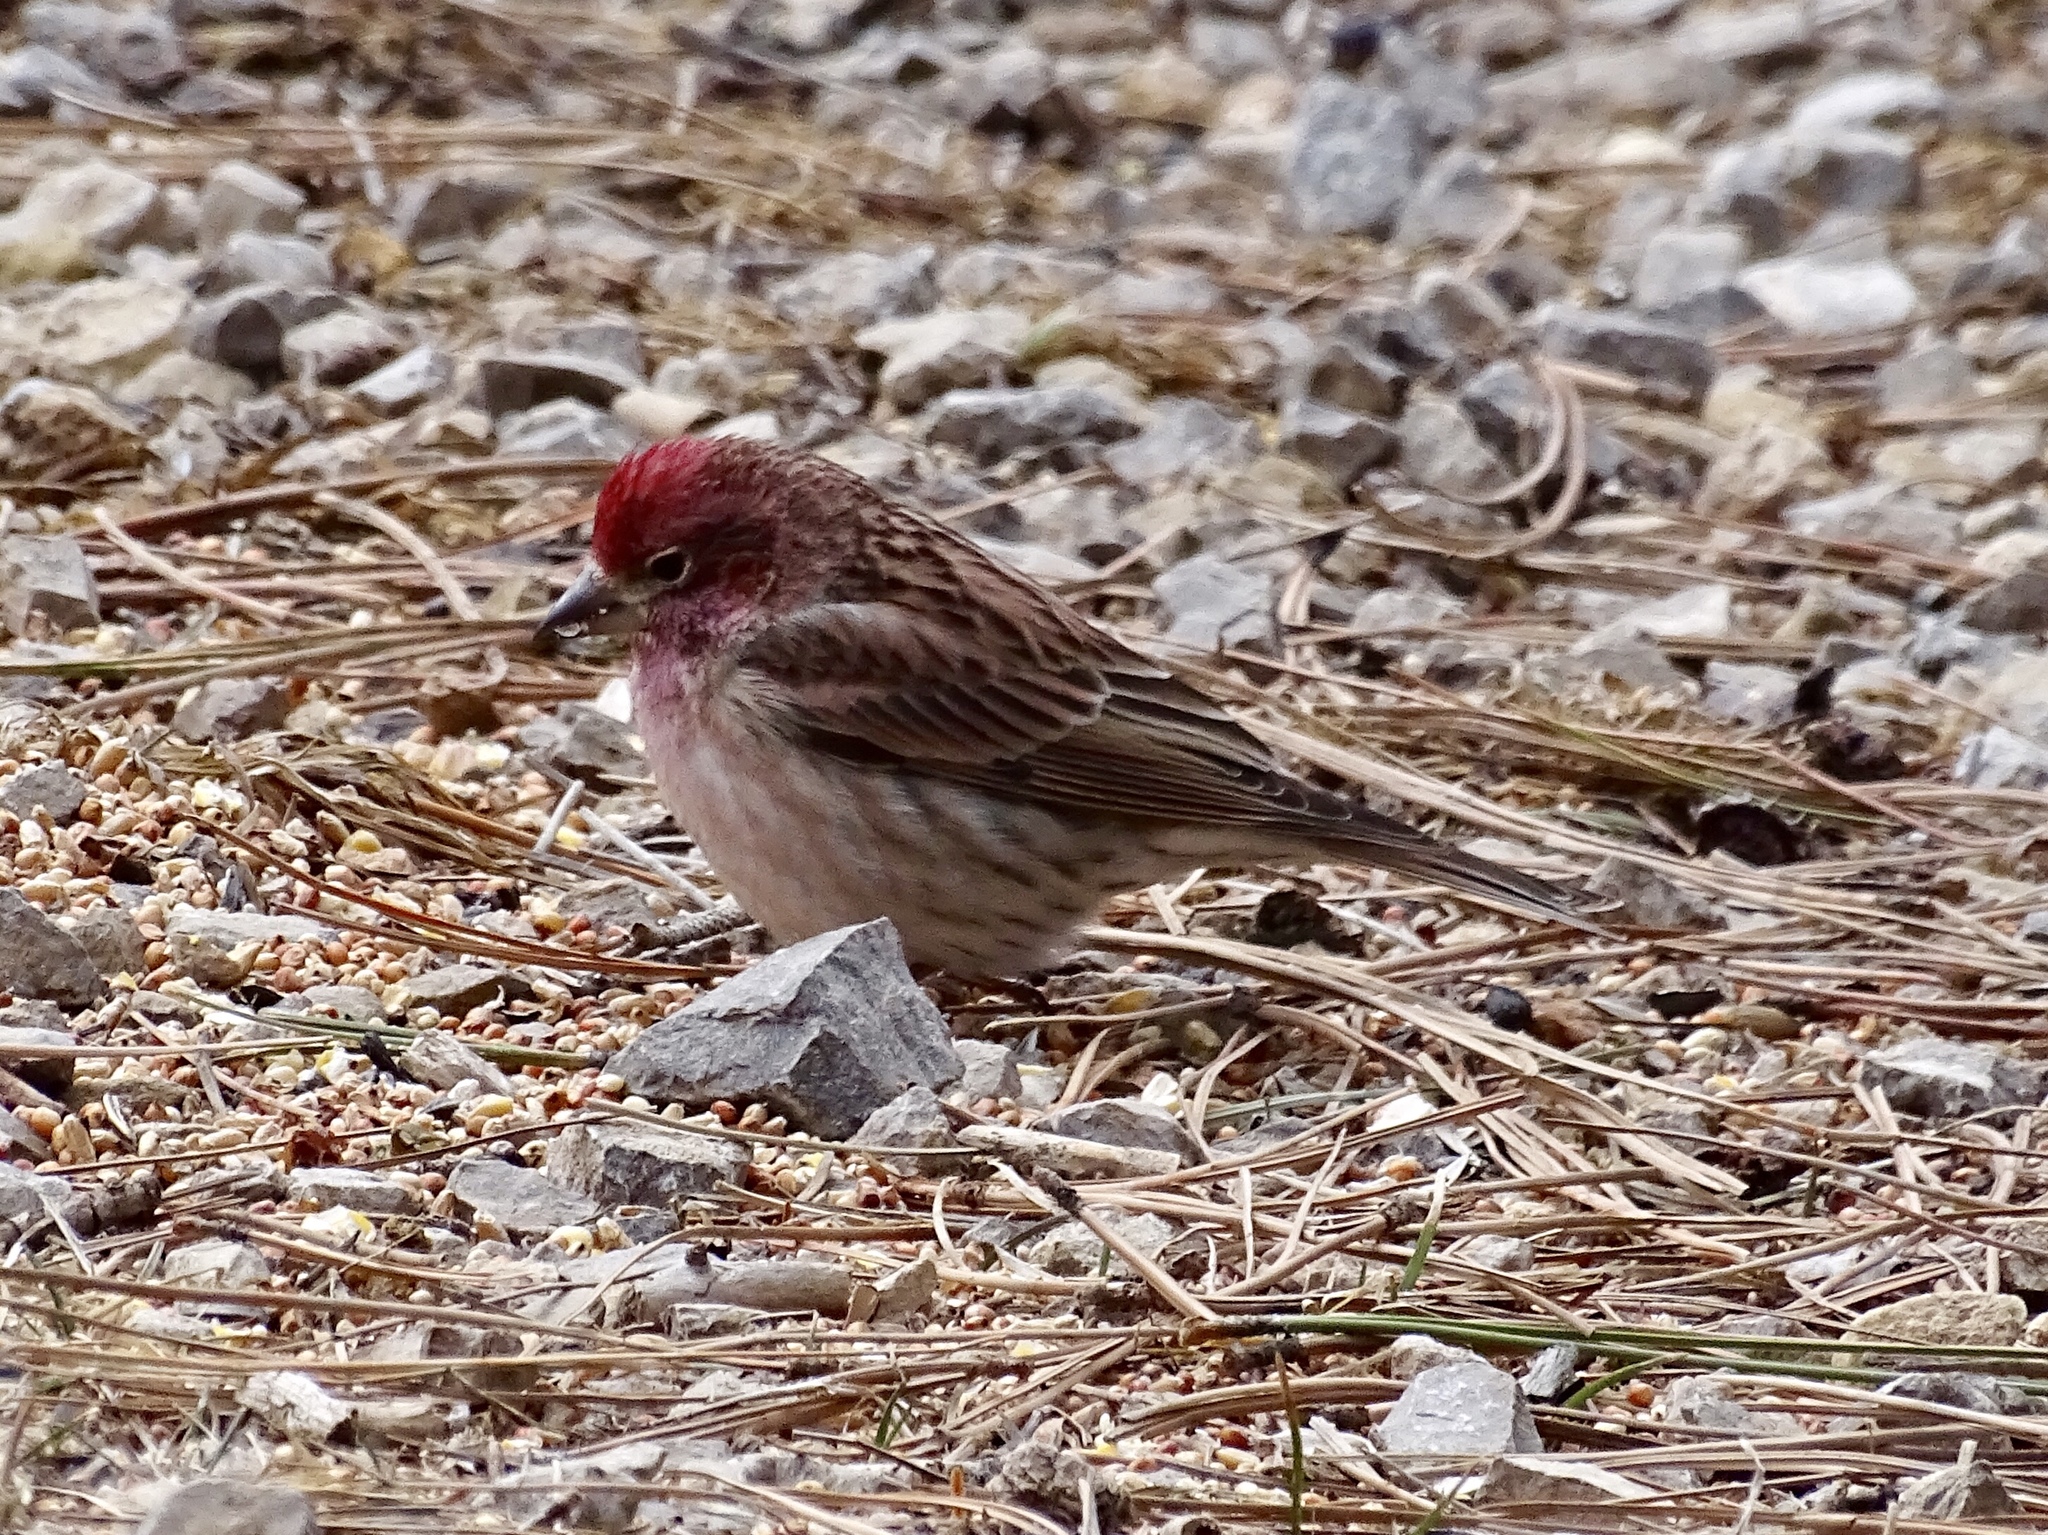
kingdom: Animalia
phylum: Chordata
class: Aves
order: Passeriformes
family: Fringillidae
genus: Haemorhous
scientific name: Haemorhous cassinii
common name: Cassin's finch
